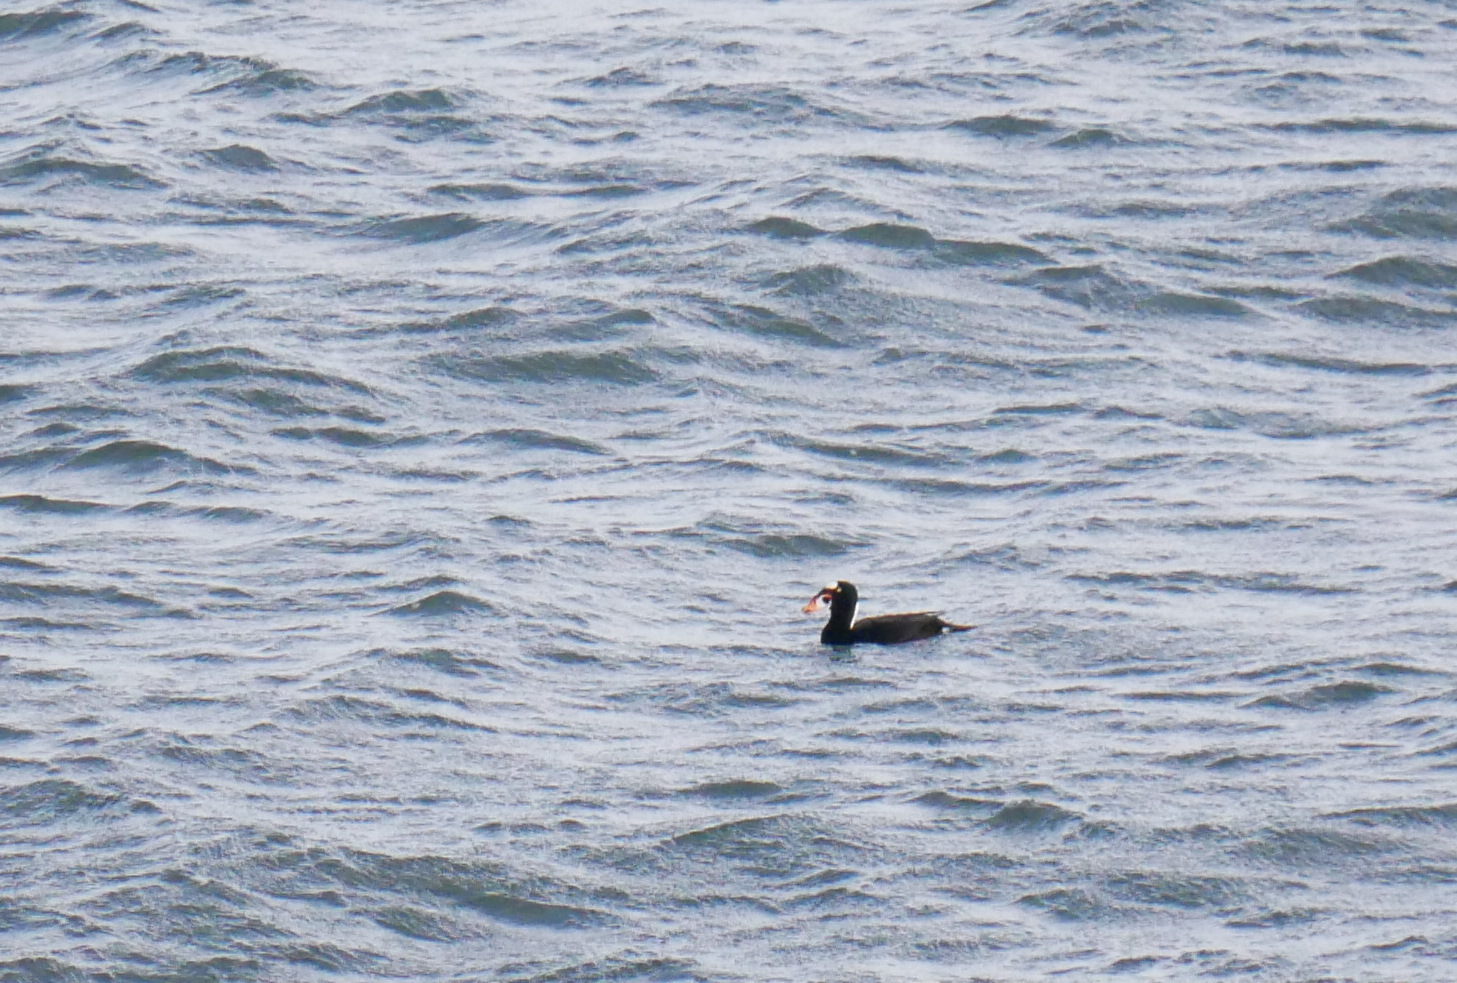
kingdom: Animalia
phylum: Chordata
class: Aves
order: Anseriformes
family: Anatidae
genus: Melanitta
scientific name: Melanitta perspicillata
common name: Surf scoter
